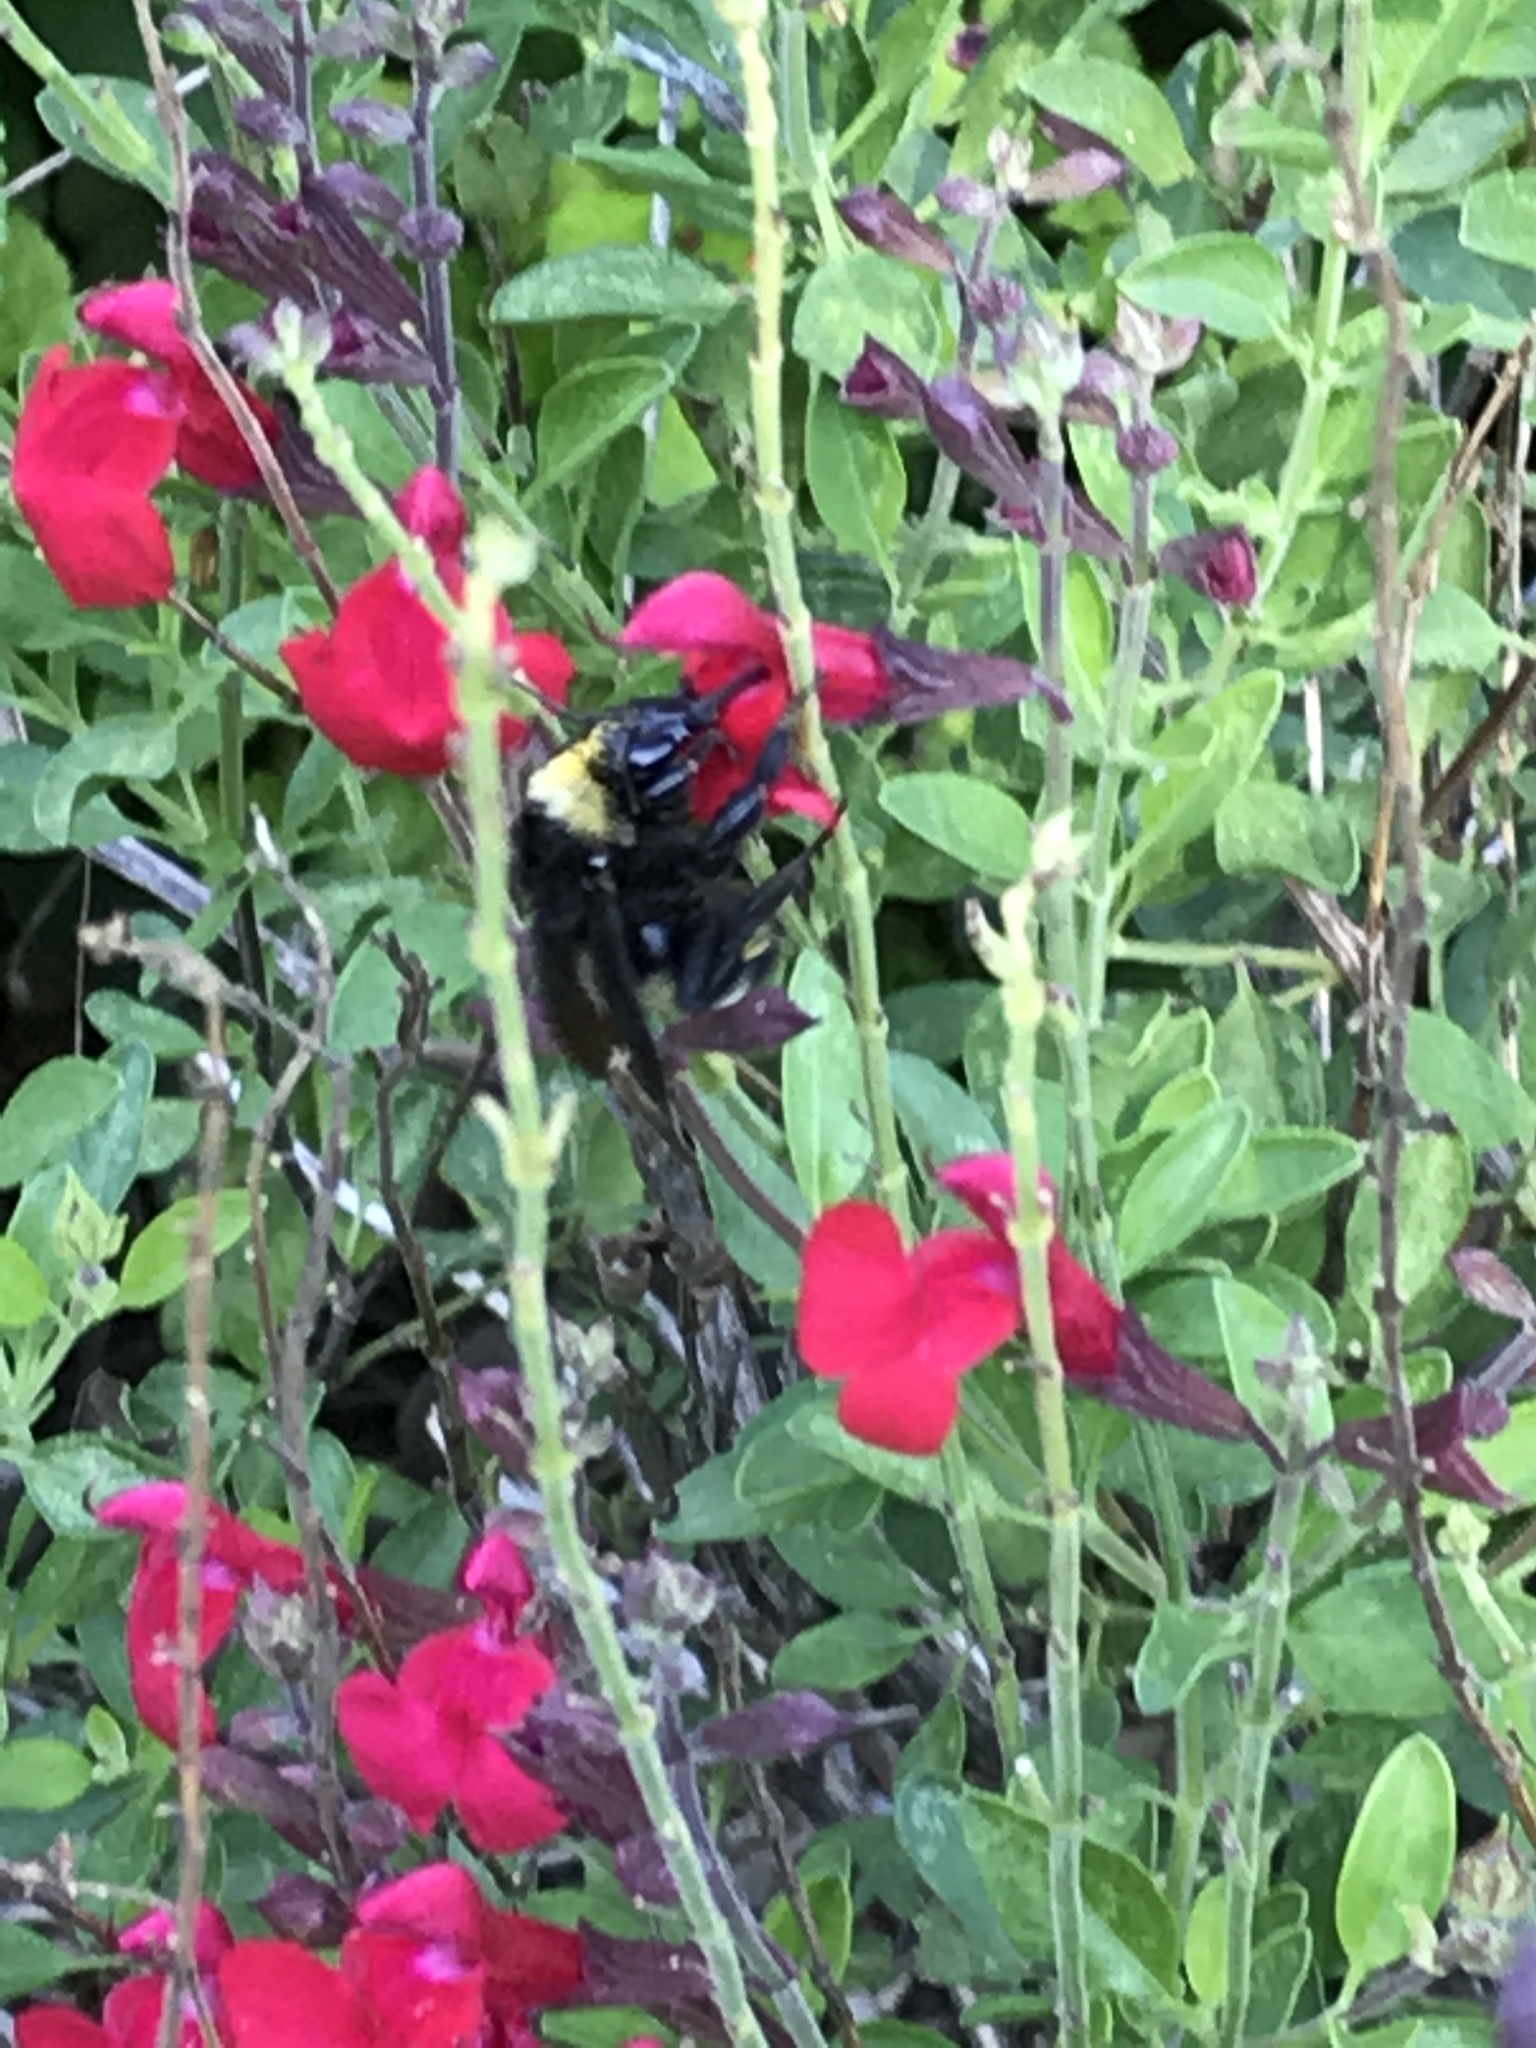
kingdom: Animalia
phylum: Arthropoda
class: Insecta
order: Hymenoptera
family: Apidae
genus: Bombus
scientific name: Bombus pensylvanicus
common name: Bumble bee
